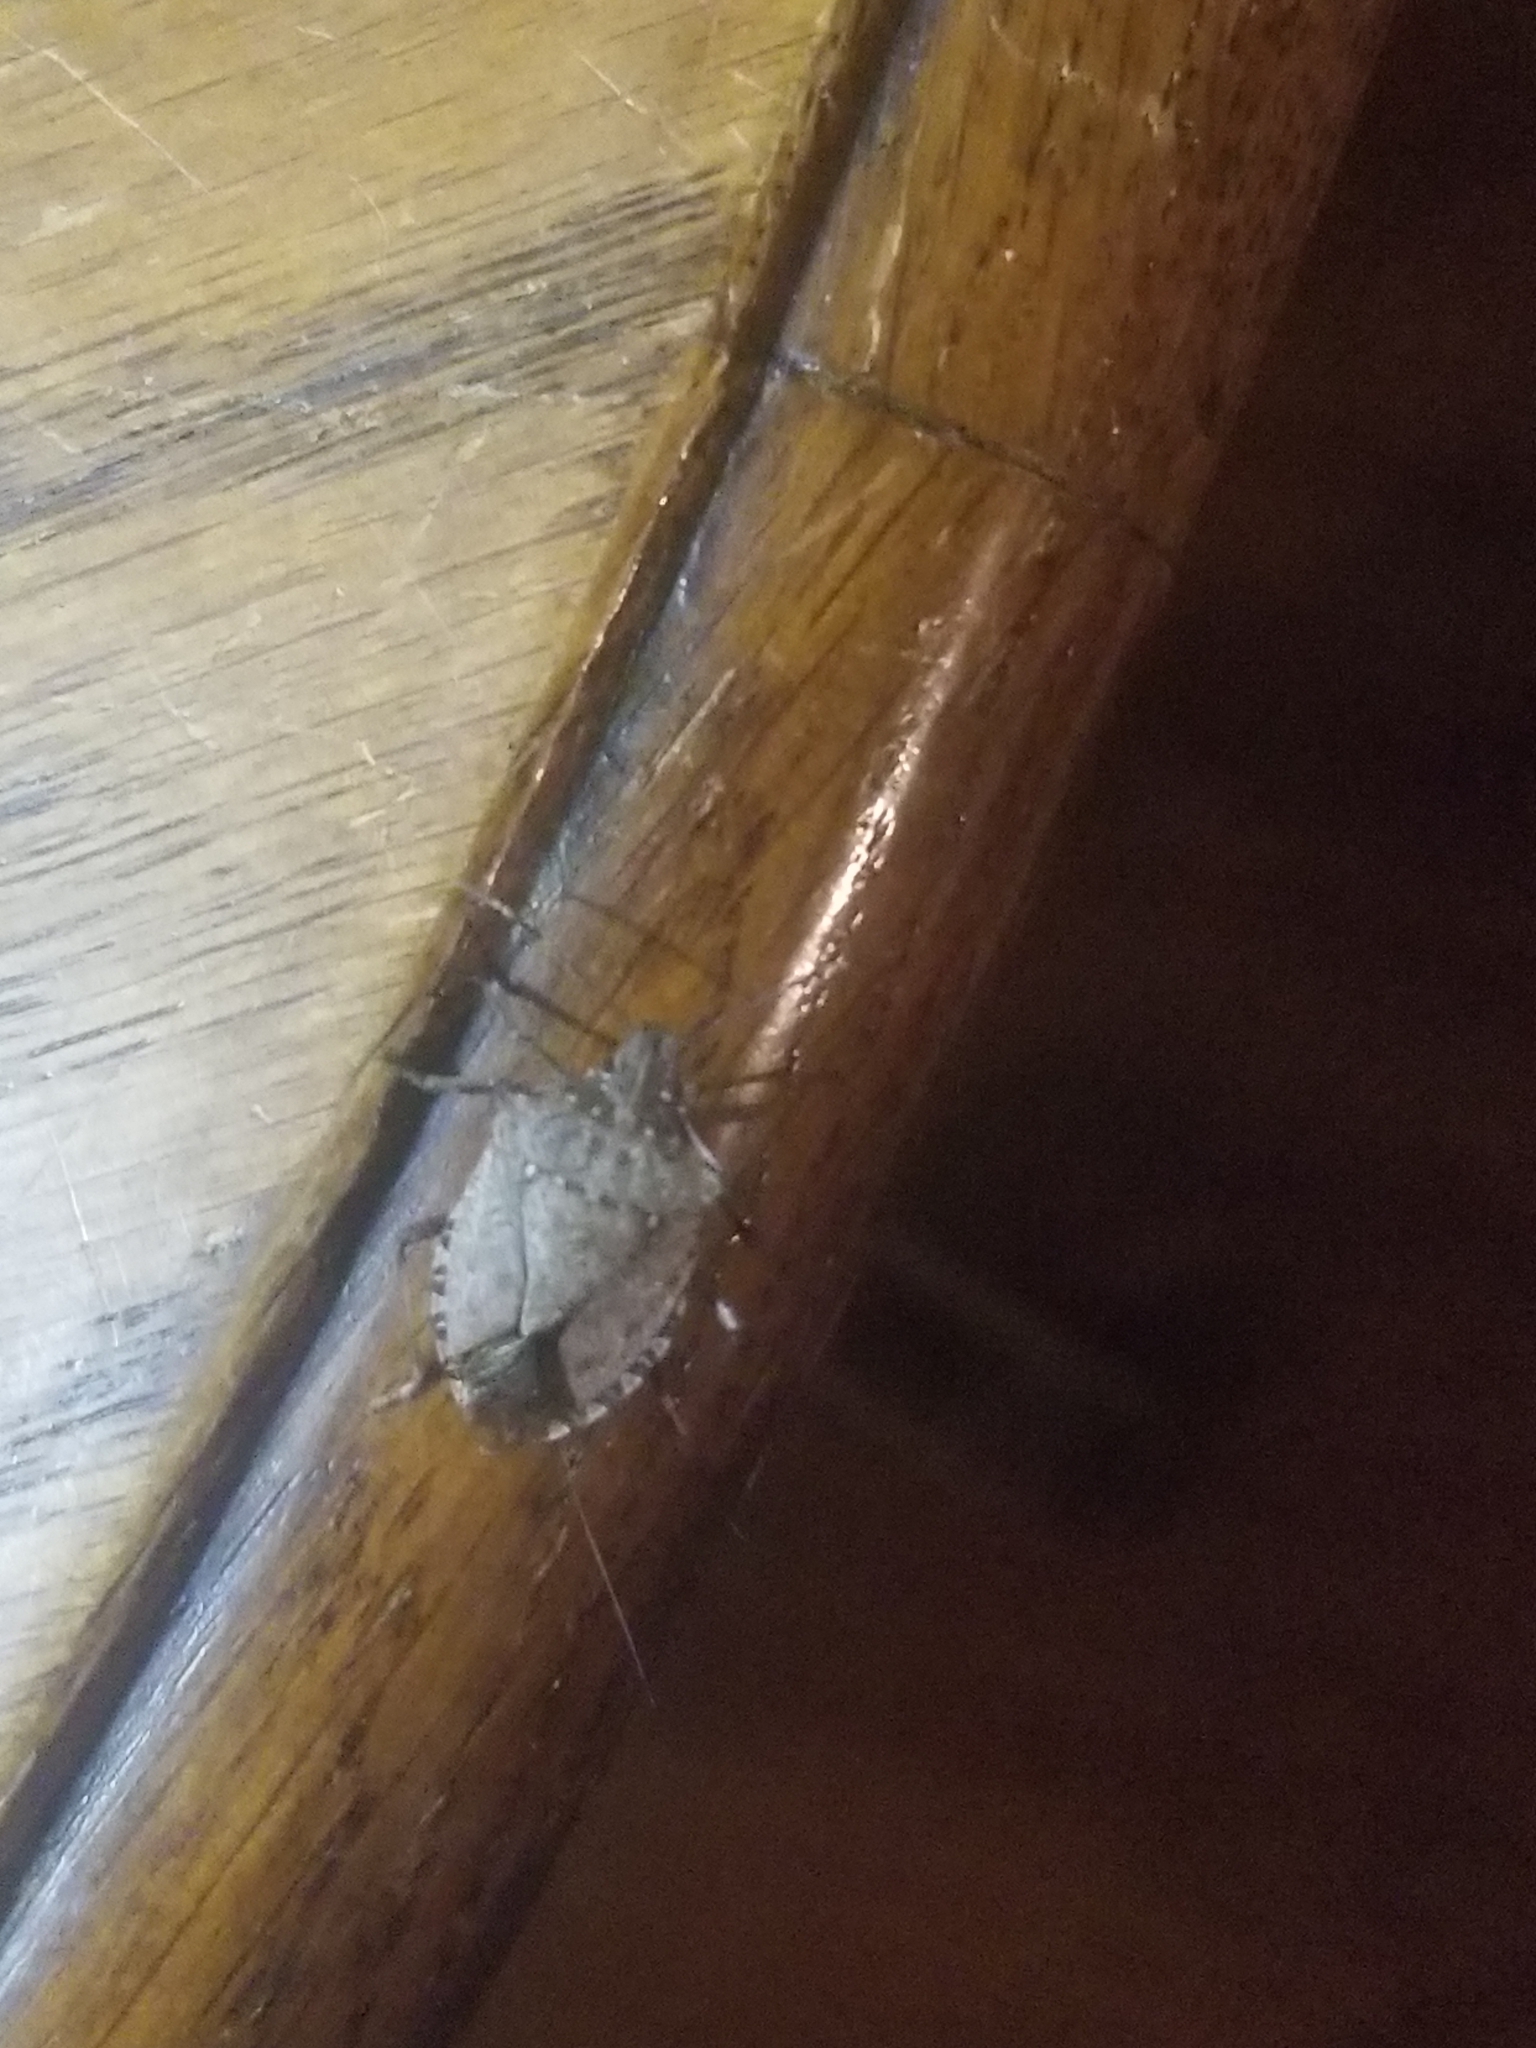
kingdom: Animalia
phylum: Arthropoda
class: Insecta
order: Hemiptera
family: Pentatomidae
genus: Halyomorpha
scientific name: Halyomorpha halys
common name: Brown marmorated stink bug
